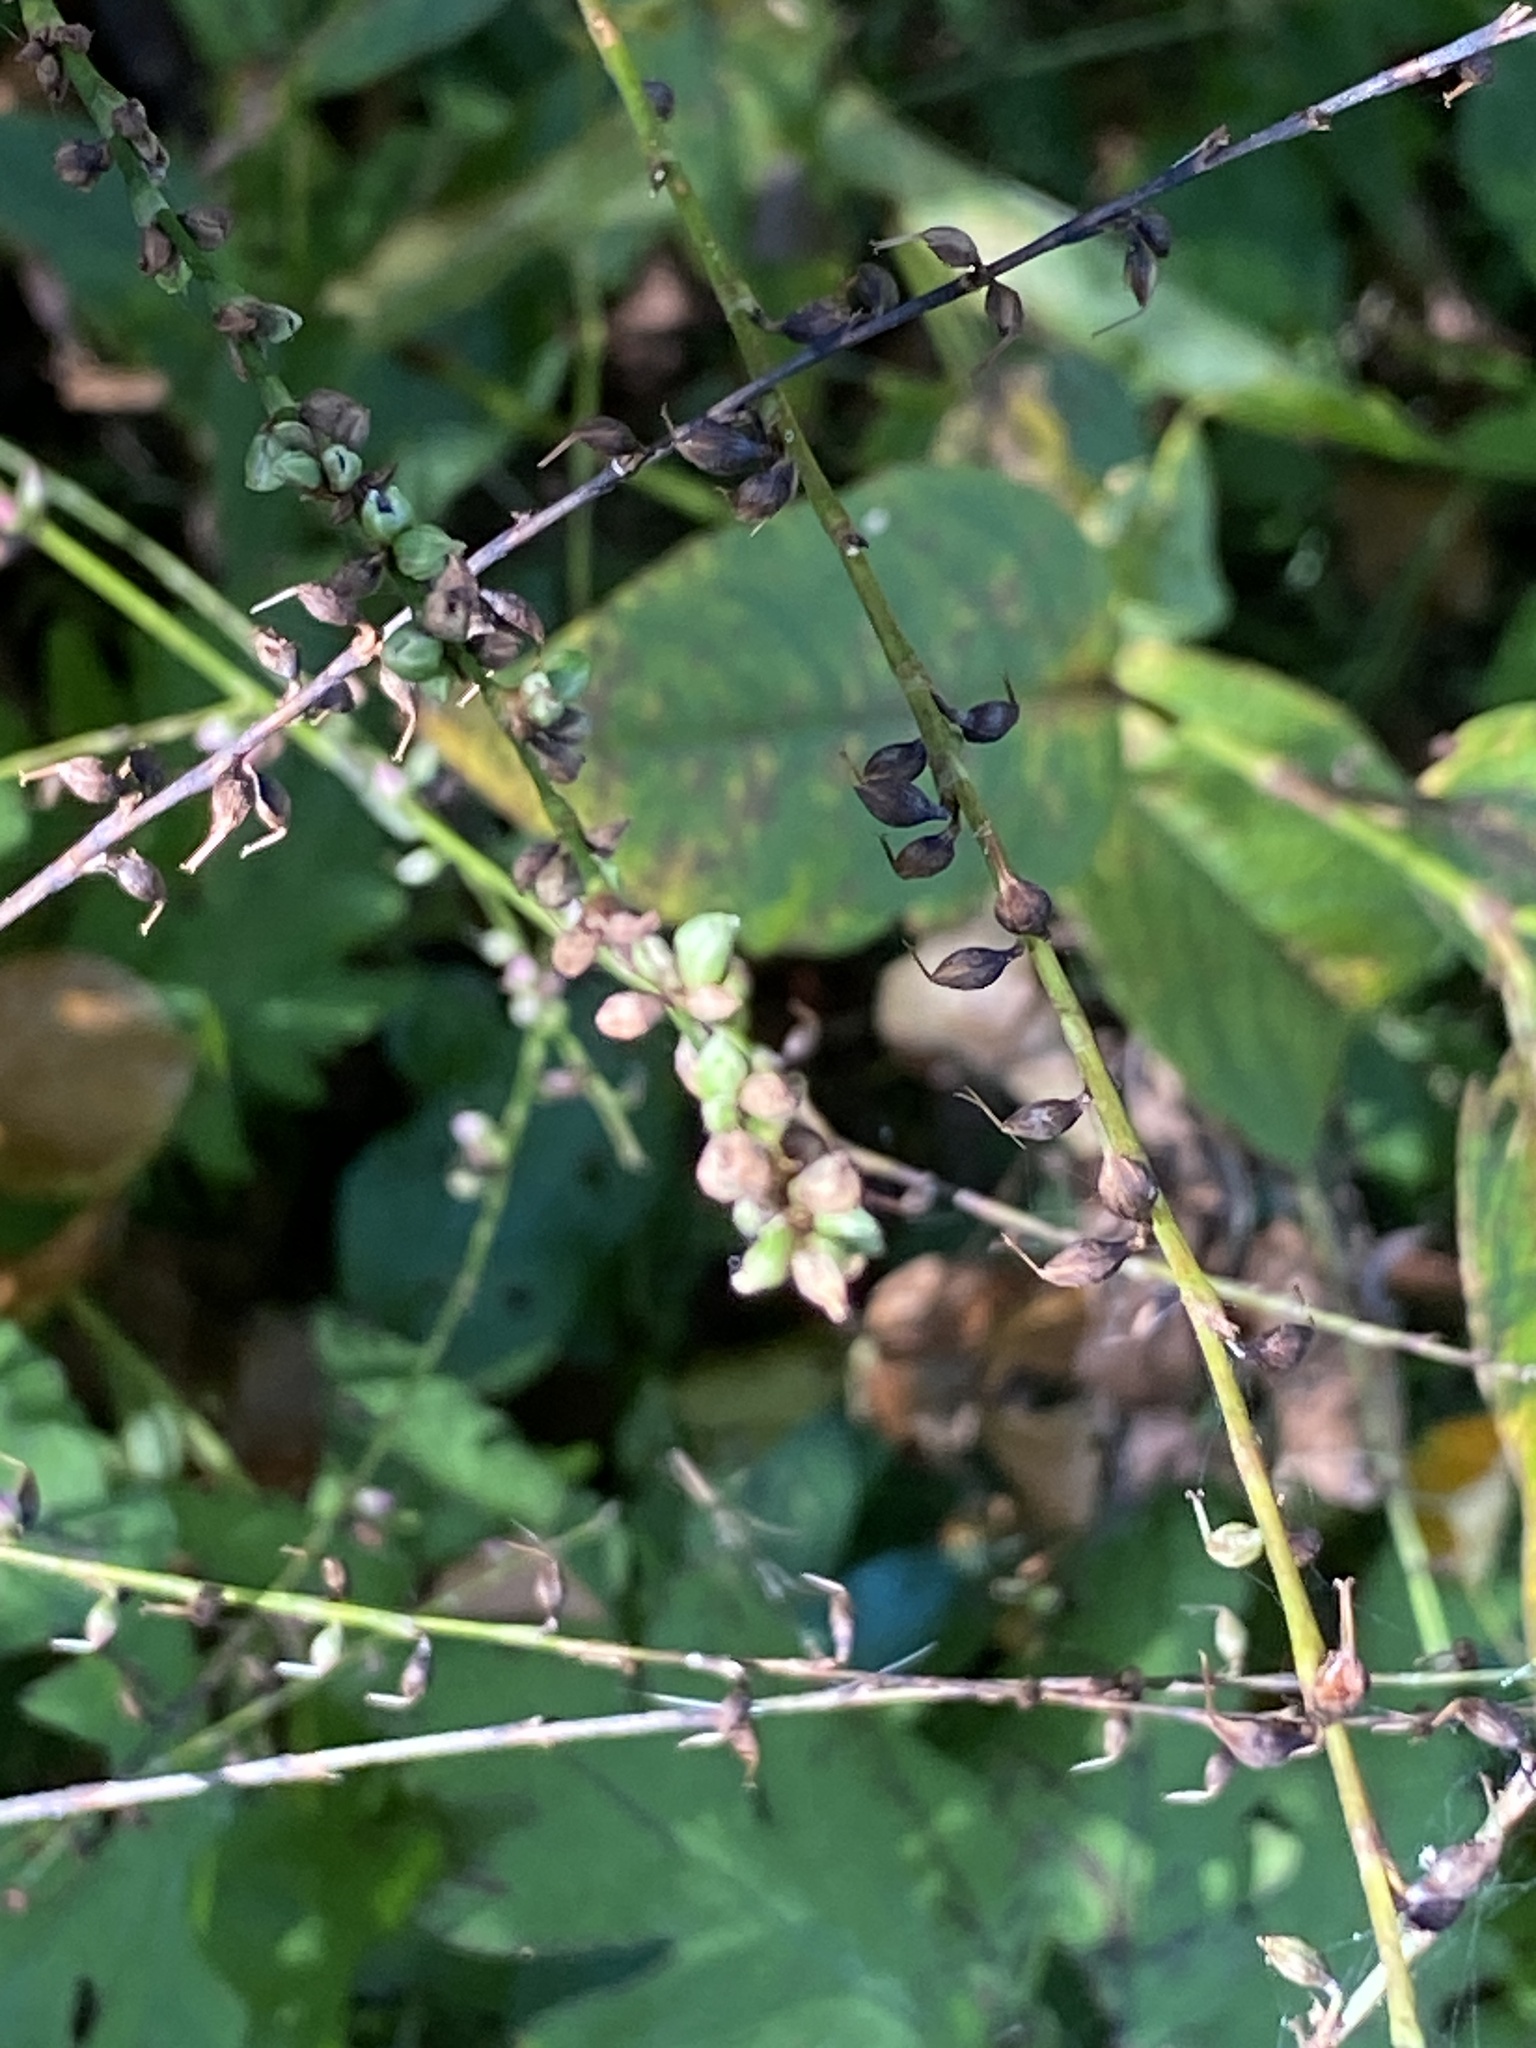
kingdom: Plantae
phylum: Tracheophyta
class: Magnoliopsida
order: Caryophyllales
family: Polygonaceae
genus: Persicaria
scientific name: Persicaria virginiana
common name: Jumpseed
